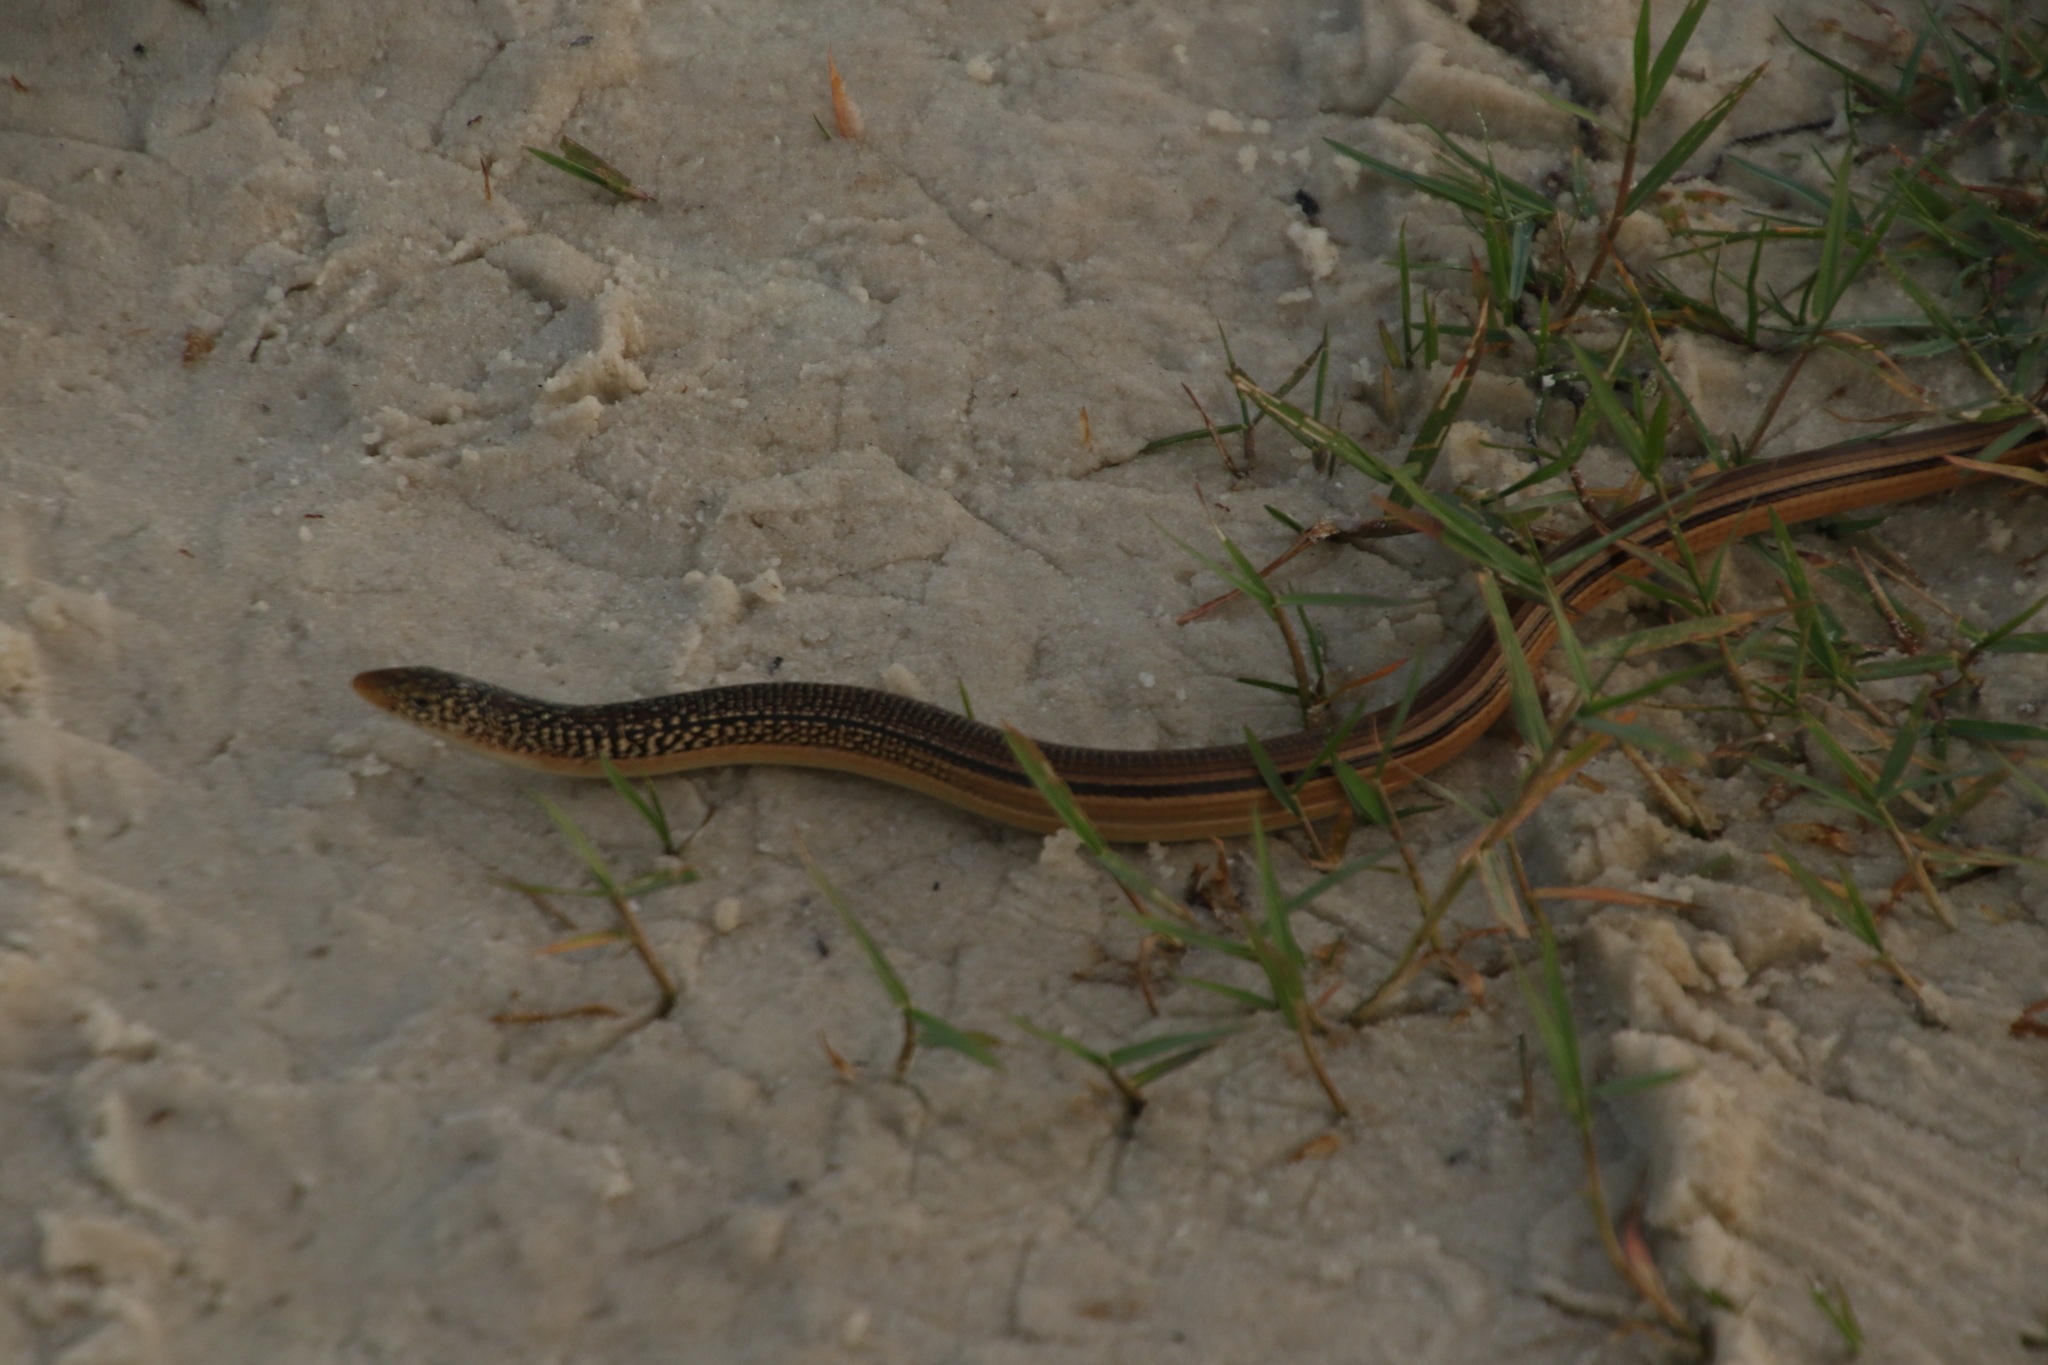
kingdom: Animalia
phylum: Chordata
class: Squamata
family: Anguidae
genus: Ophisaurus
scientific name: Ophisaurus compressus
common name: Island glass lizard
